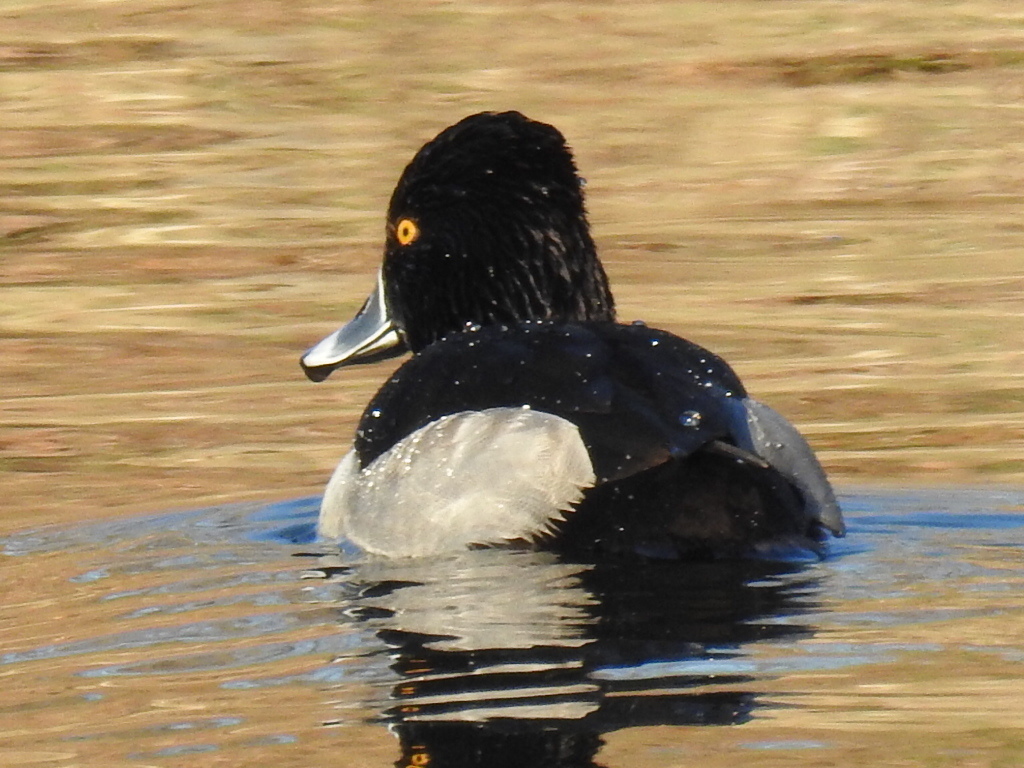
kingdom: Animalia
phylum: Chordata
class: Aves
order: Anseriformes
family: Anatidae
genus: Aythya
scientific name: Aythya collaris
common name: Ring-necked duck
